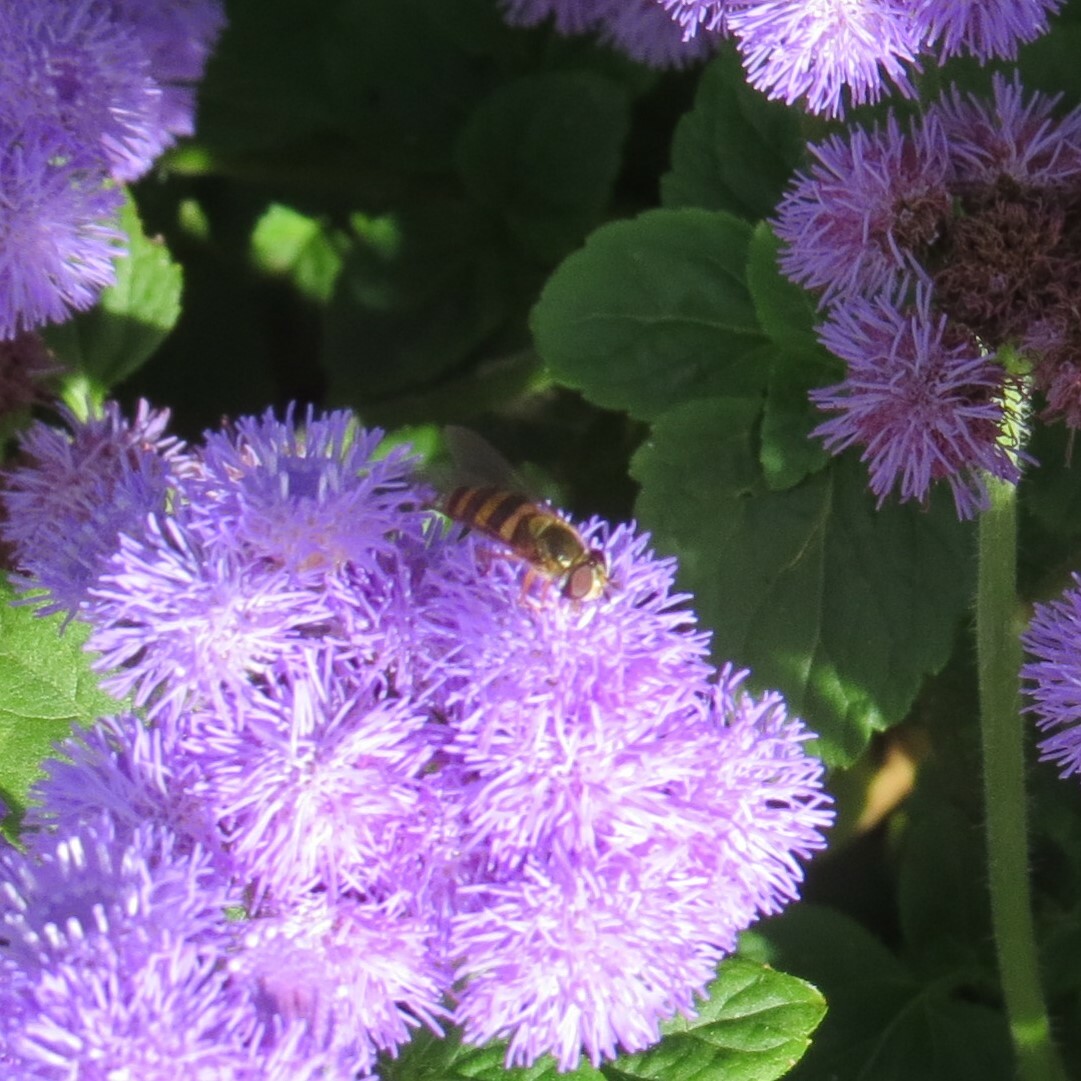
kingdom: Animalia
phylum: Arthropoda
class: Insecta
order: Diptera
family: Syrphidae
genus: Eupeodes
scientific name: Eupeodes
